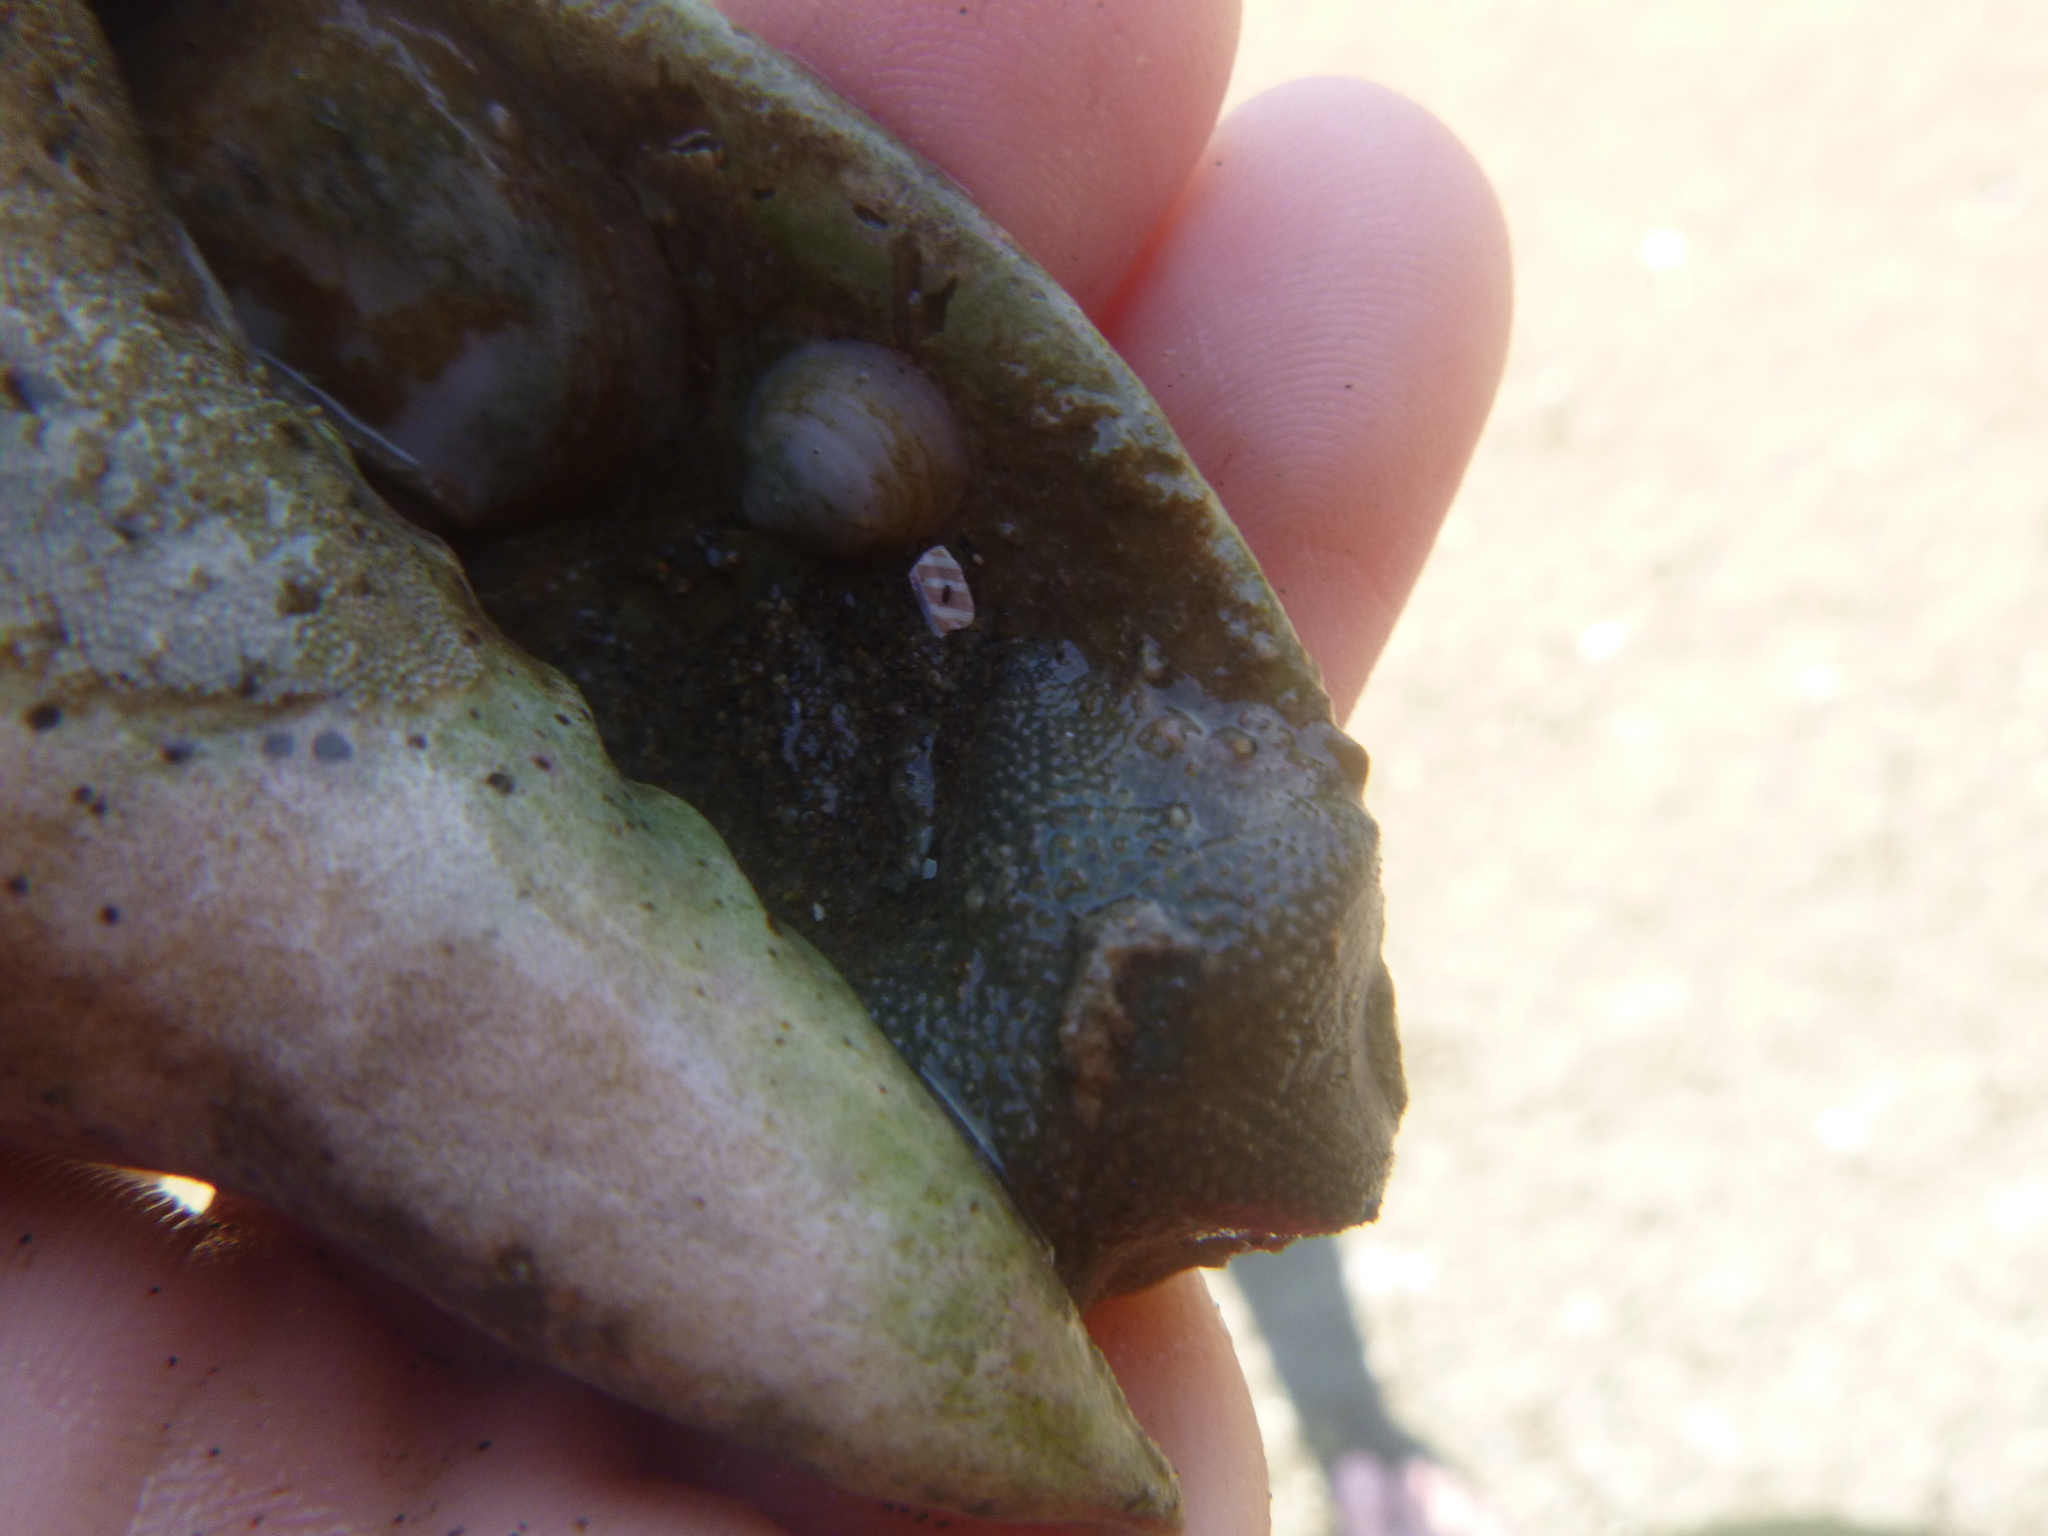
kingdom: Animalia
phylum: Mollusca
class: Gastropoda
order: Littorinimorpha
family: Calyptraeidae
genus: Maoricrypta
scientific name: Maoricrypta sodalis
